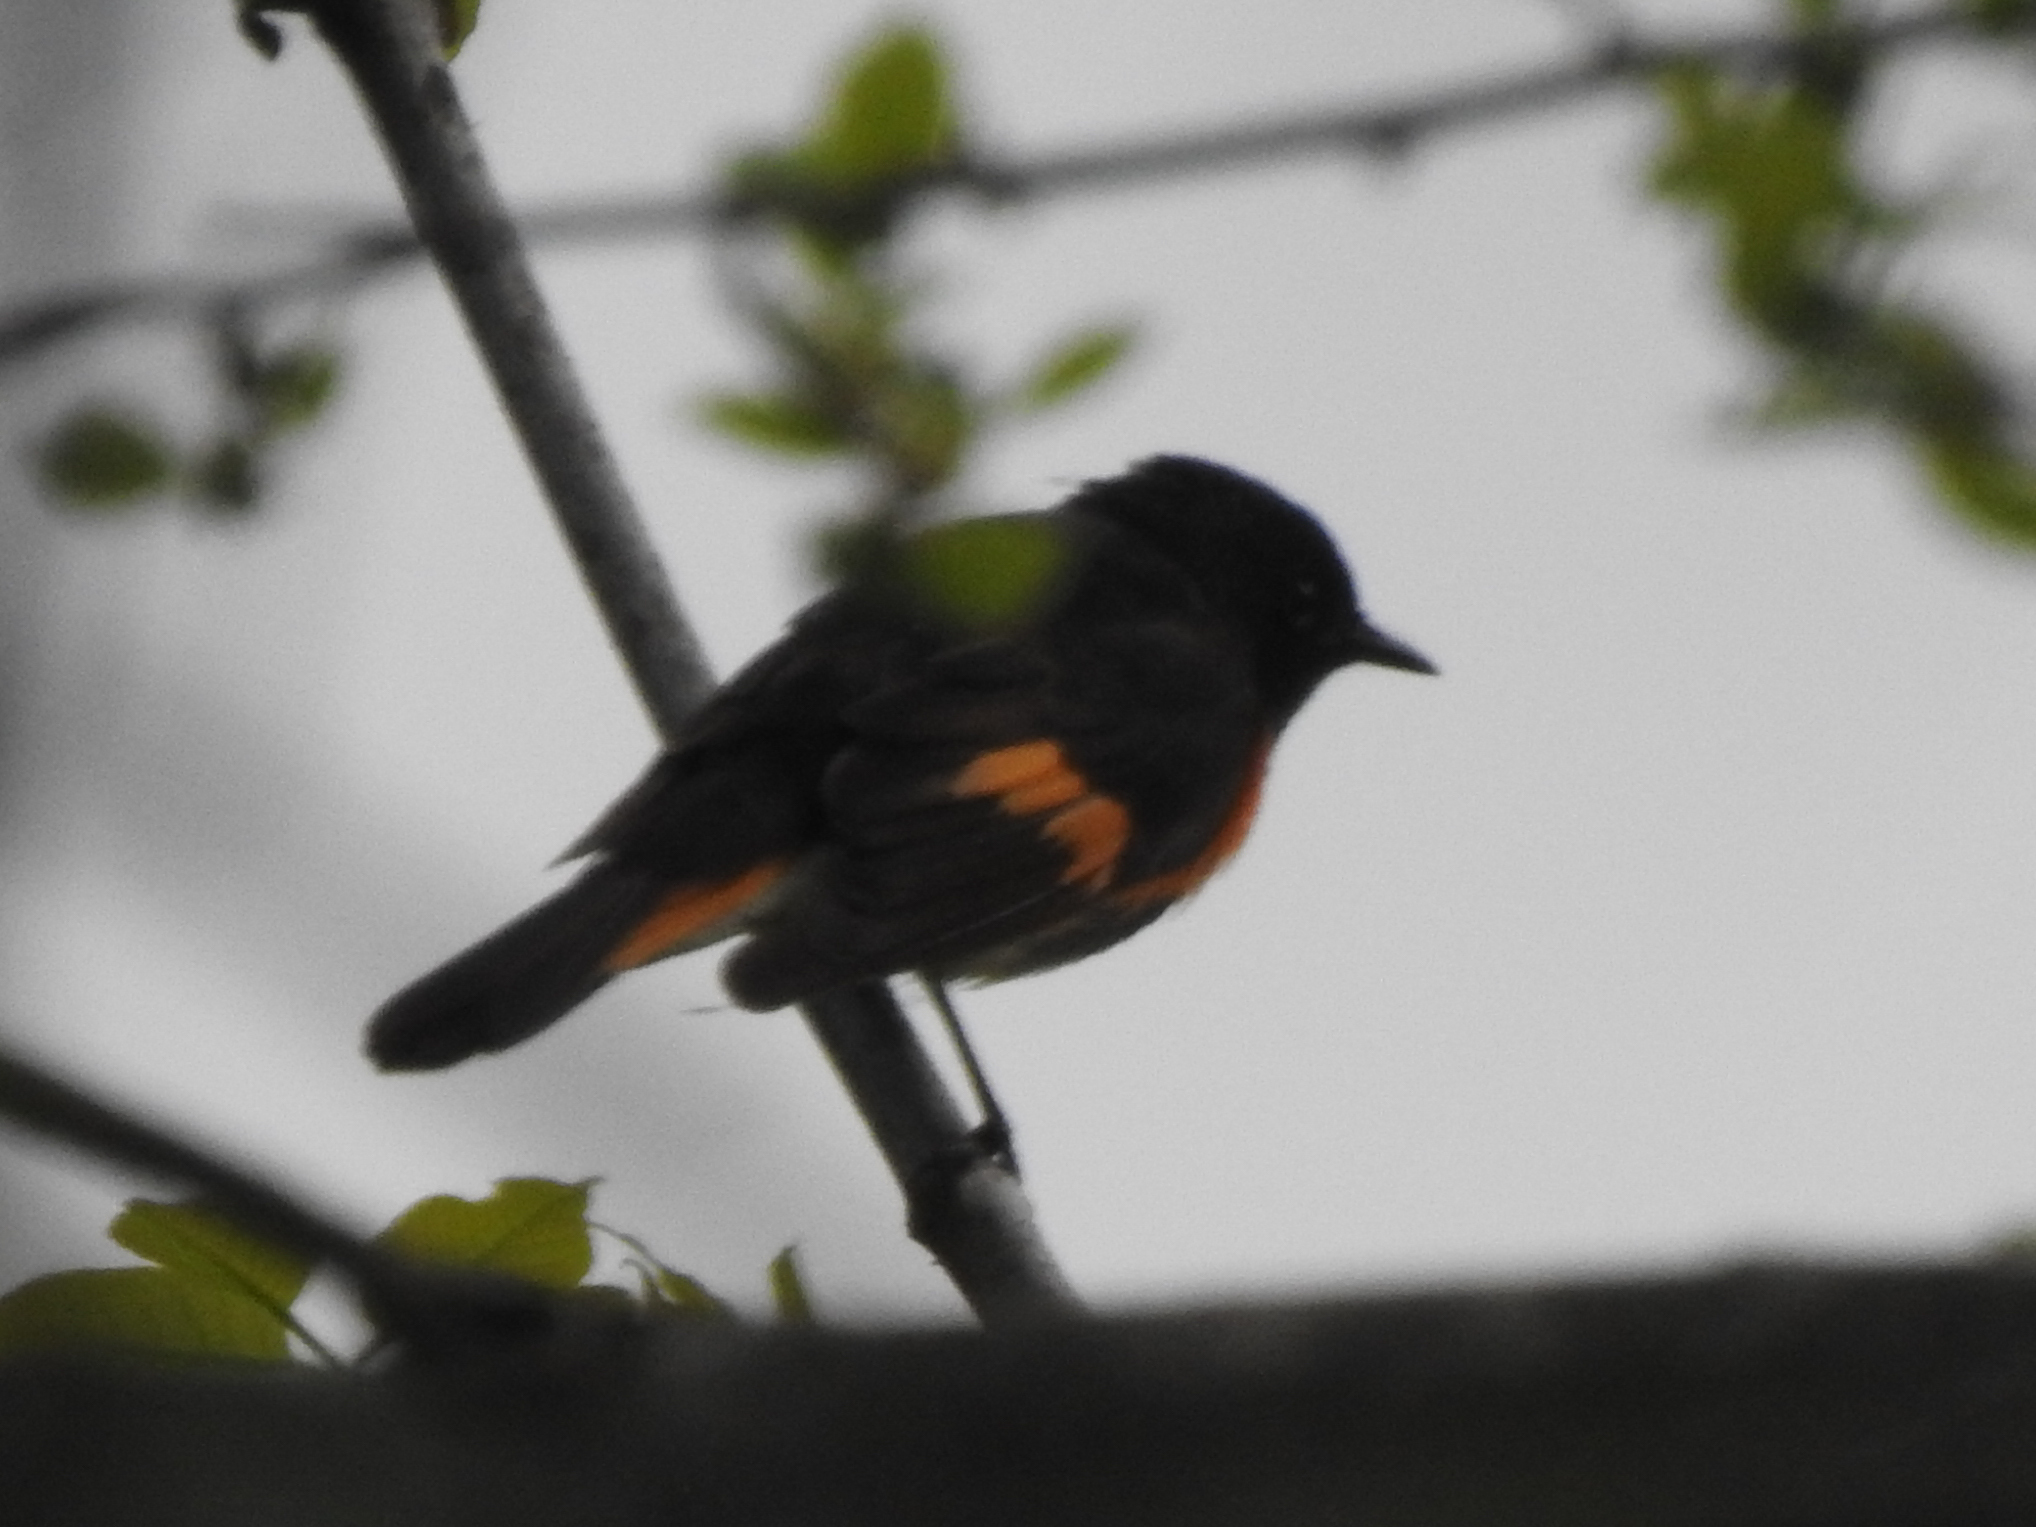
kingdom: Animalia
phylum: Chordata
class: Aves
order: Passeriformes
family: Parulidae
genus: Setophaga
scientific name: Setophaga ruticilla
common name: American redstart
